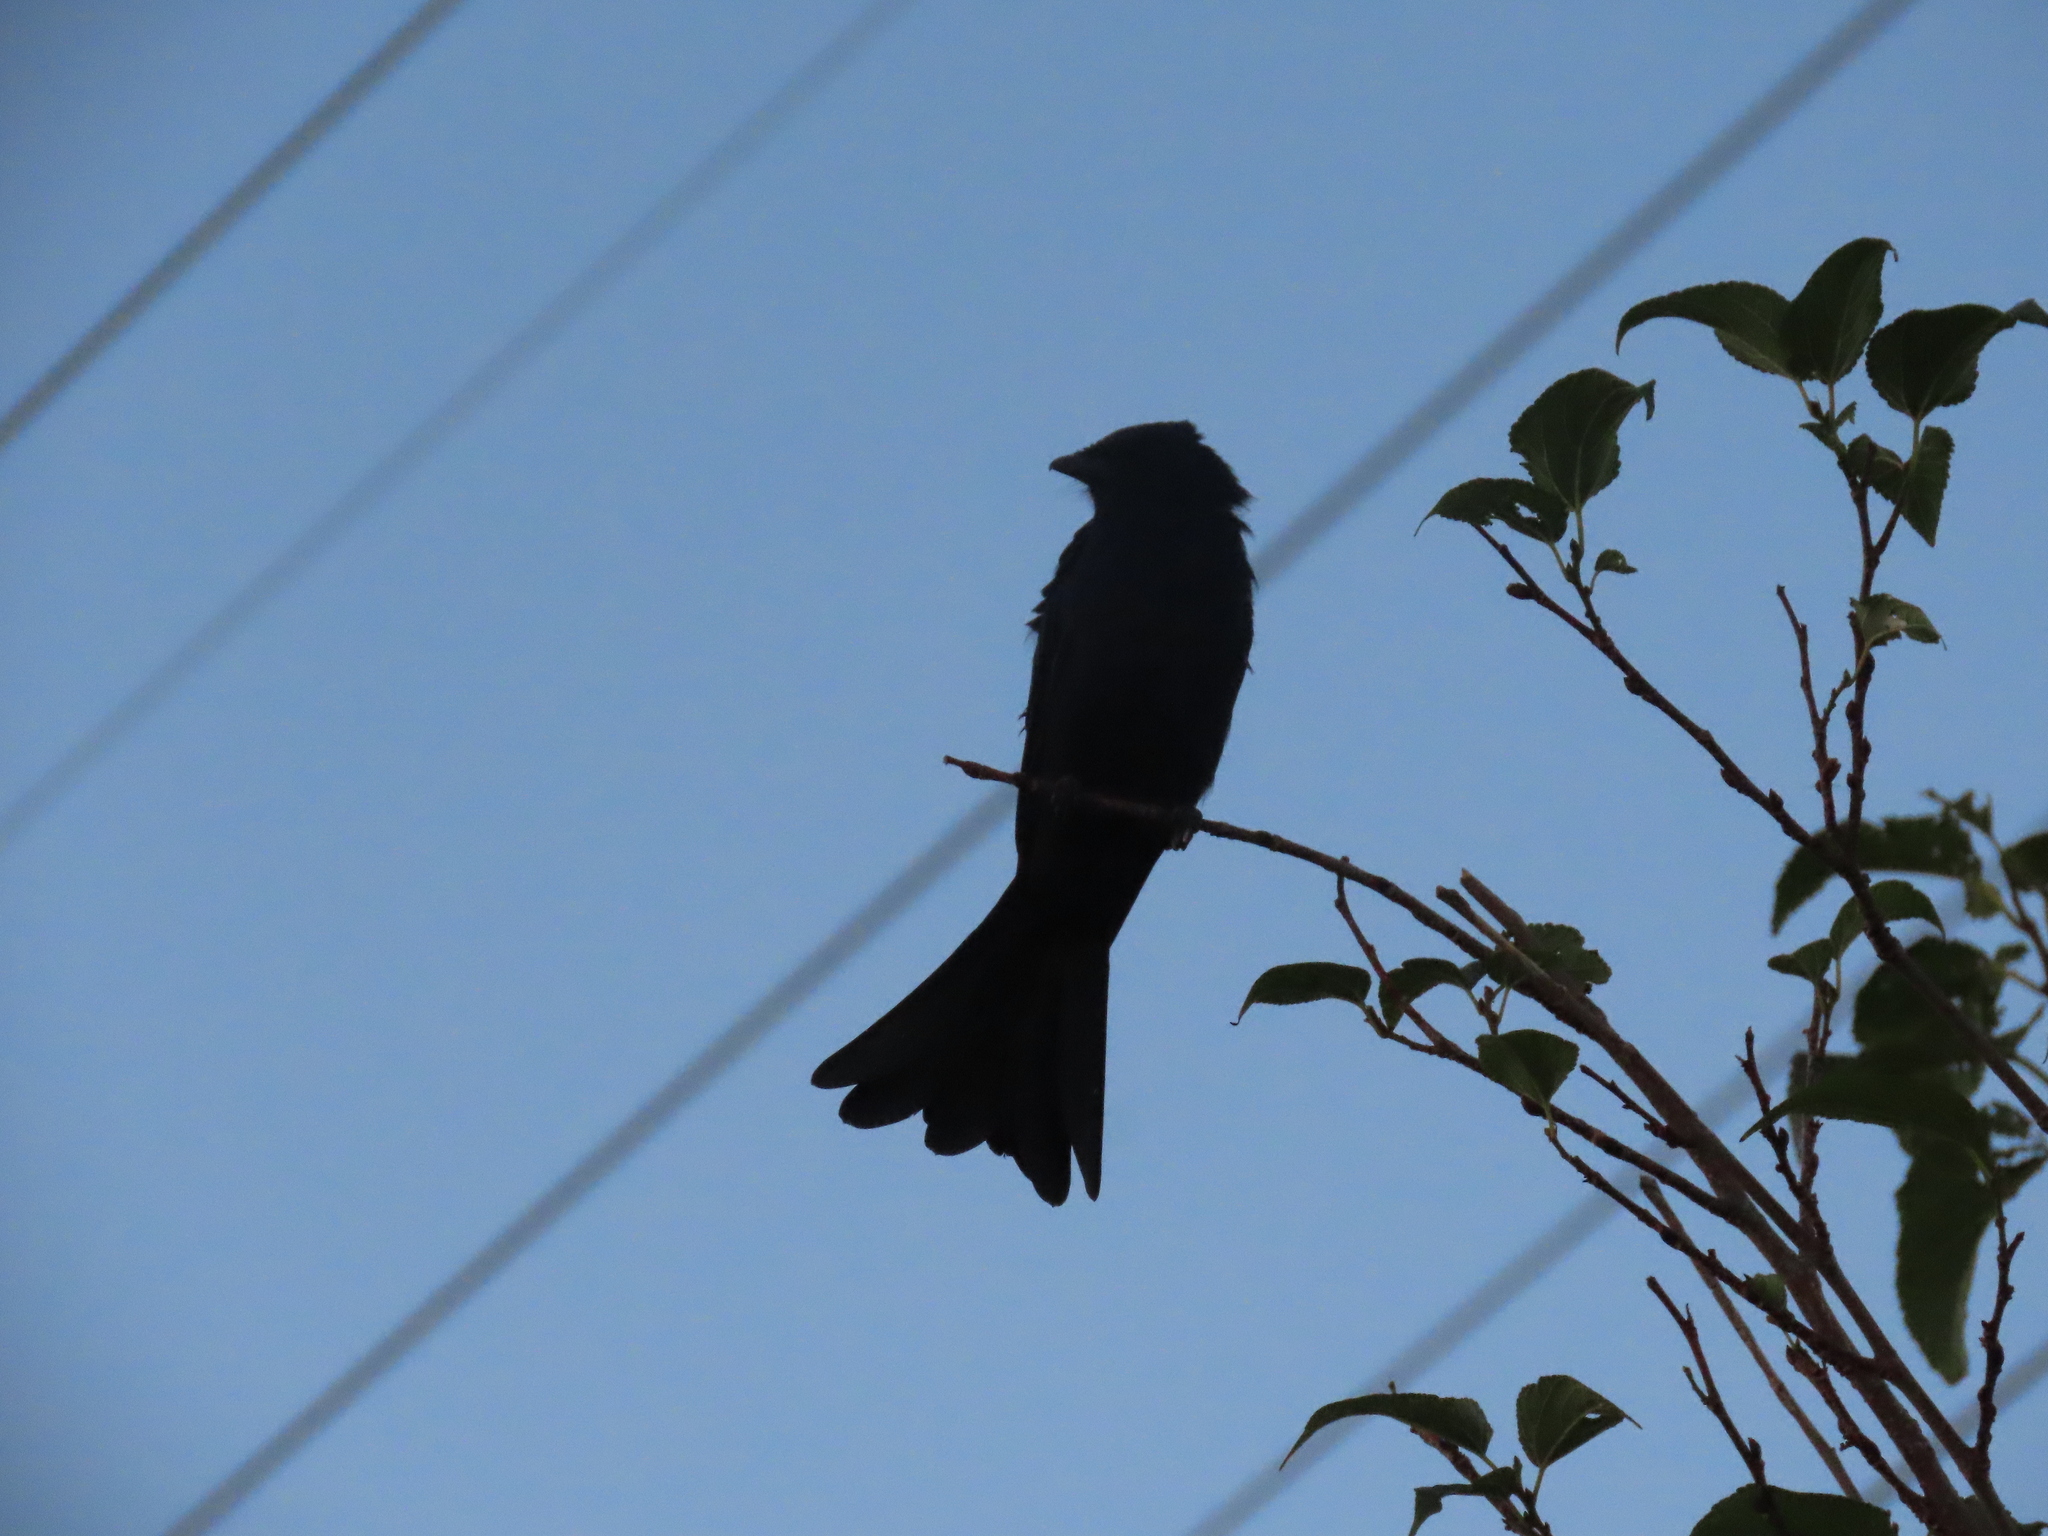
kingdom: Animalia
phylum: Chordata
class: Aves
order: Passeriformes
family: Dicruridae
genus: Dicrurus
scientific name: Dicrurus macrocercus
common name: Black drongo
